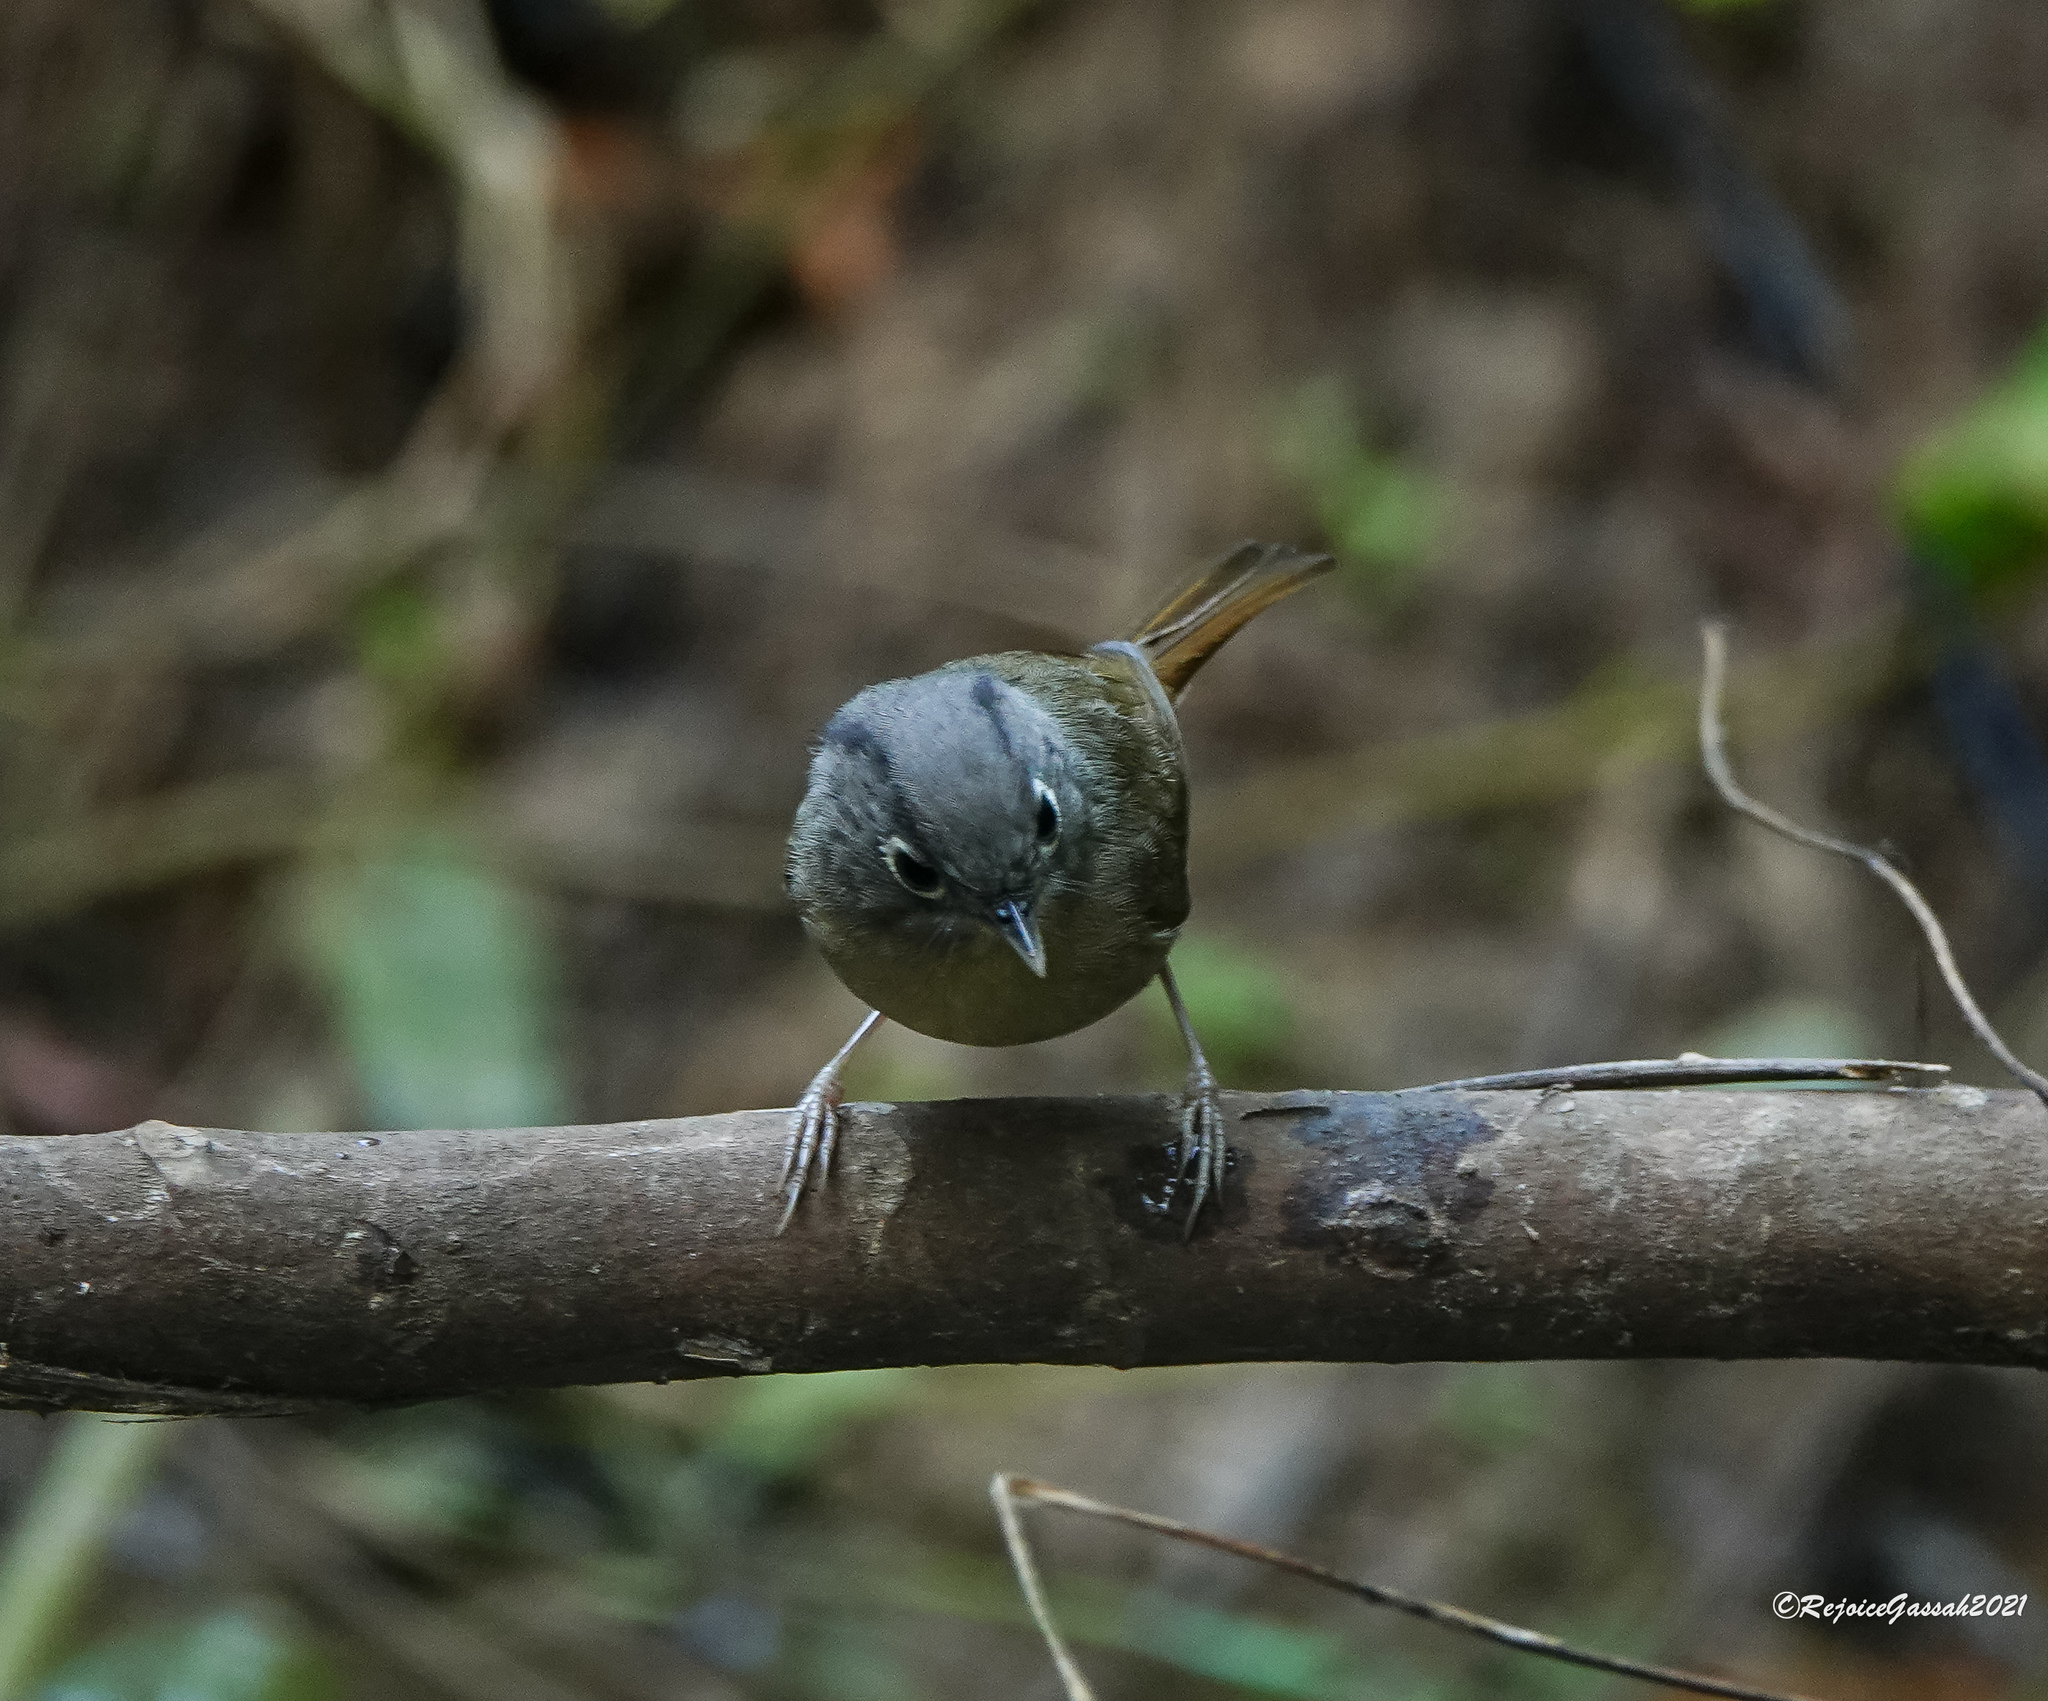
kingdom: Animalia
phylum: Chordata
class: Aves
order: Passeriformes
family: Pellorneidae
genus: Alcippe
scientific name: Alcippe nipalensis
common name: Nepal fulvetta
